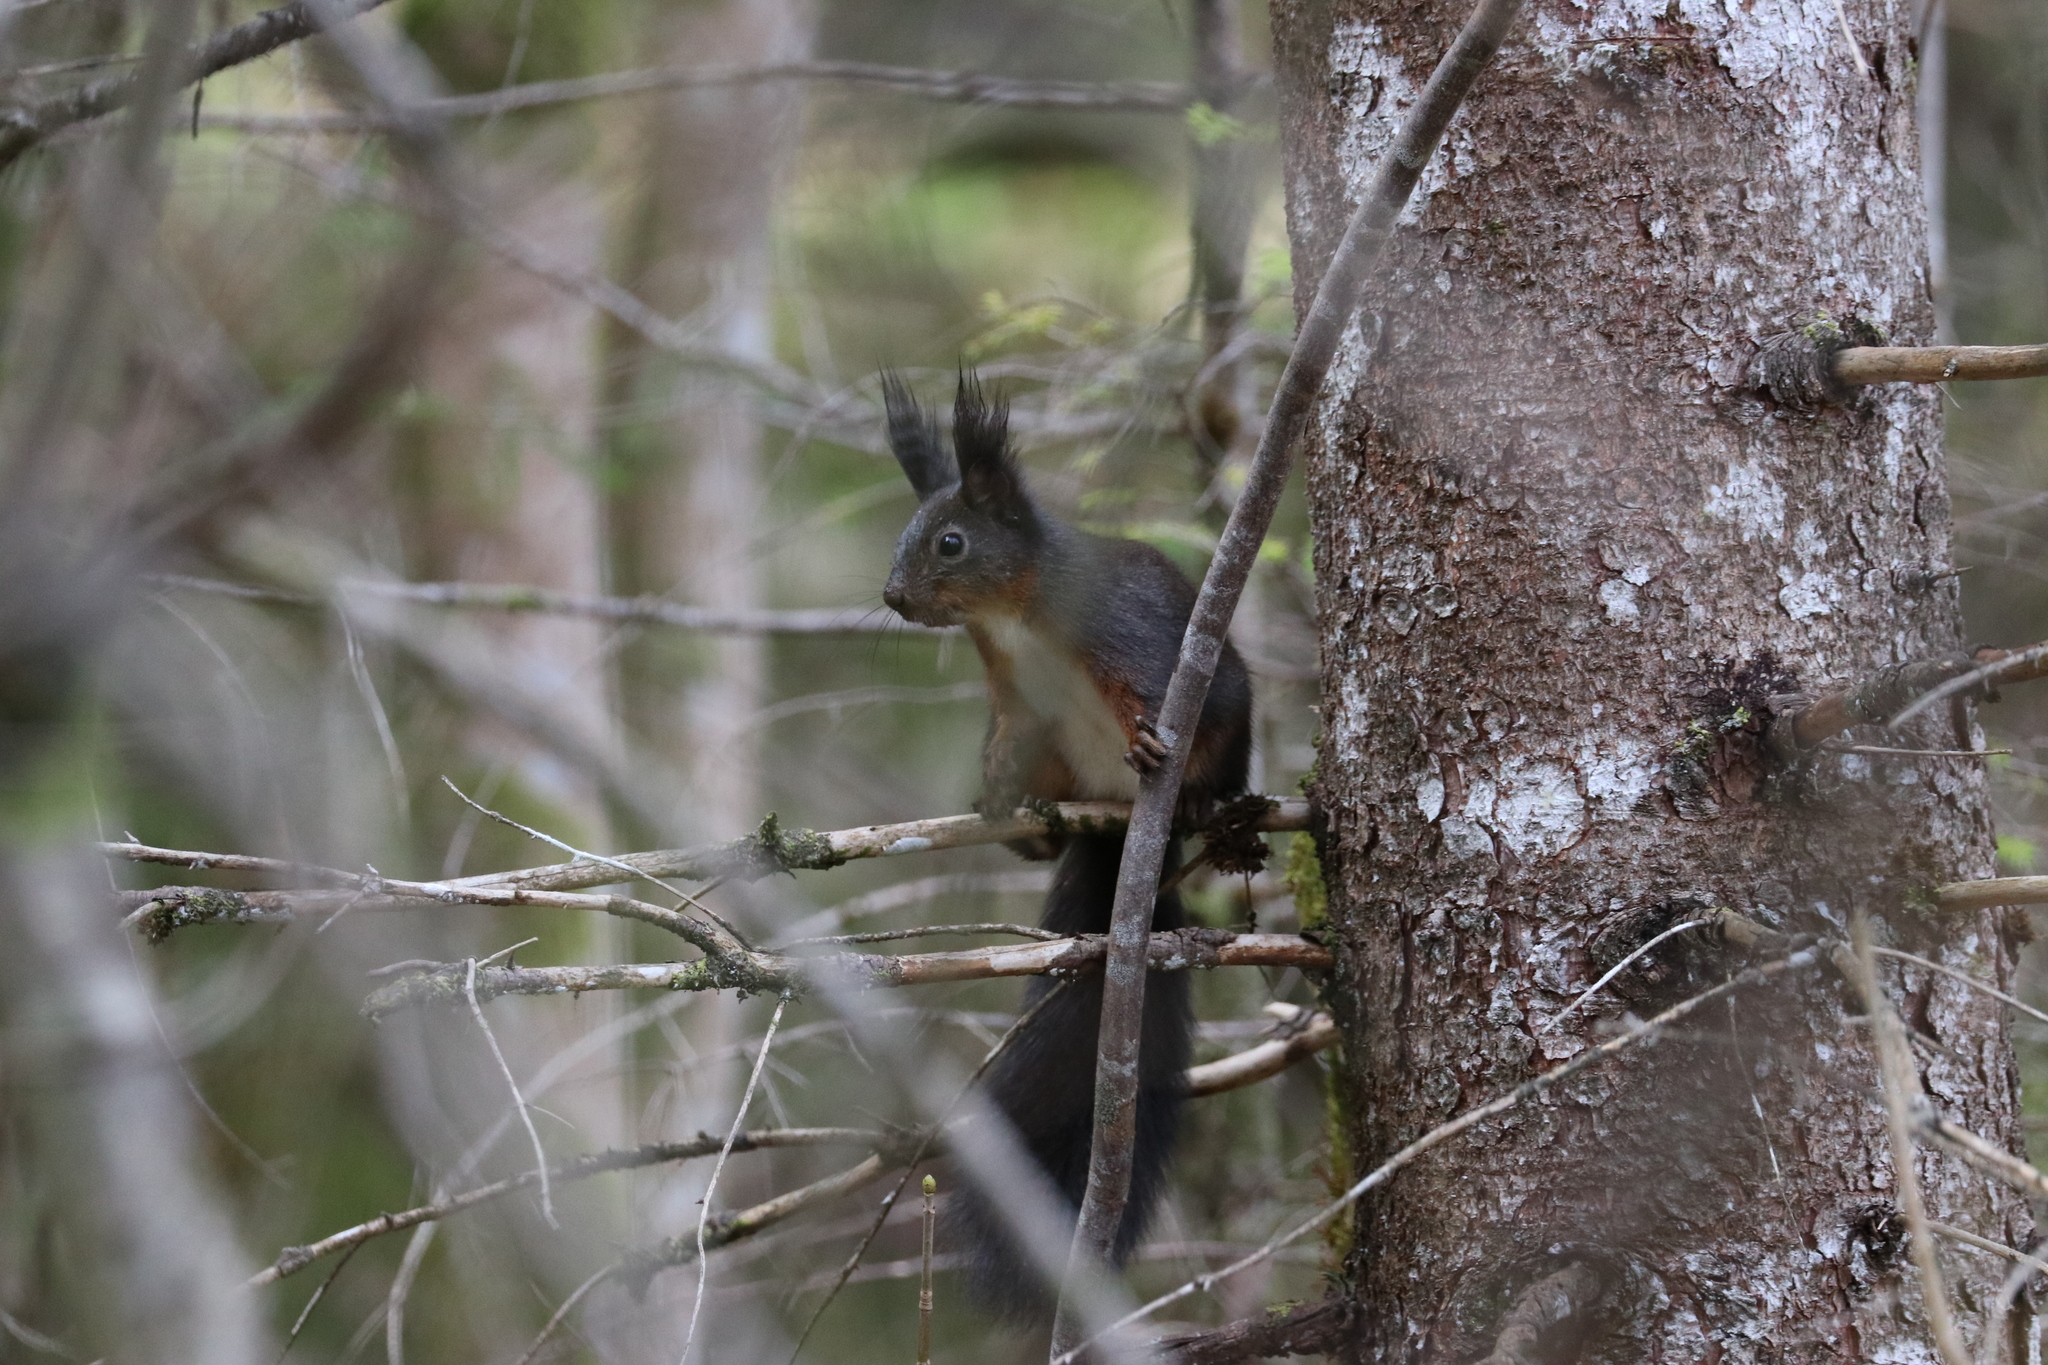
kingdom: Animalia
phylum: Chordata
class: Mammalia
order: Rodentia
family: Sciuridae
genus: Sciurus
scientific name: Sciurus vulgaris
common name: Eurasian red squirrel
